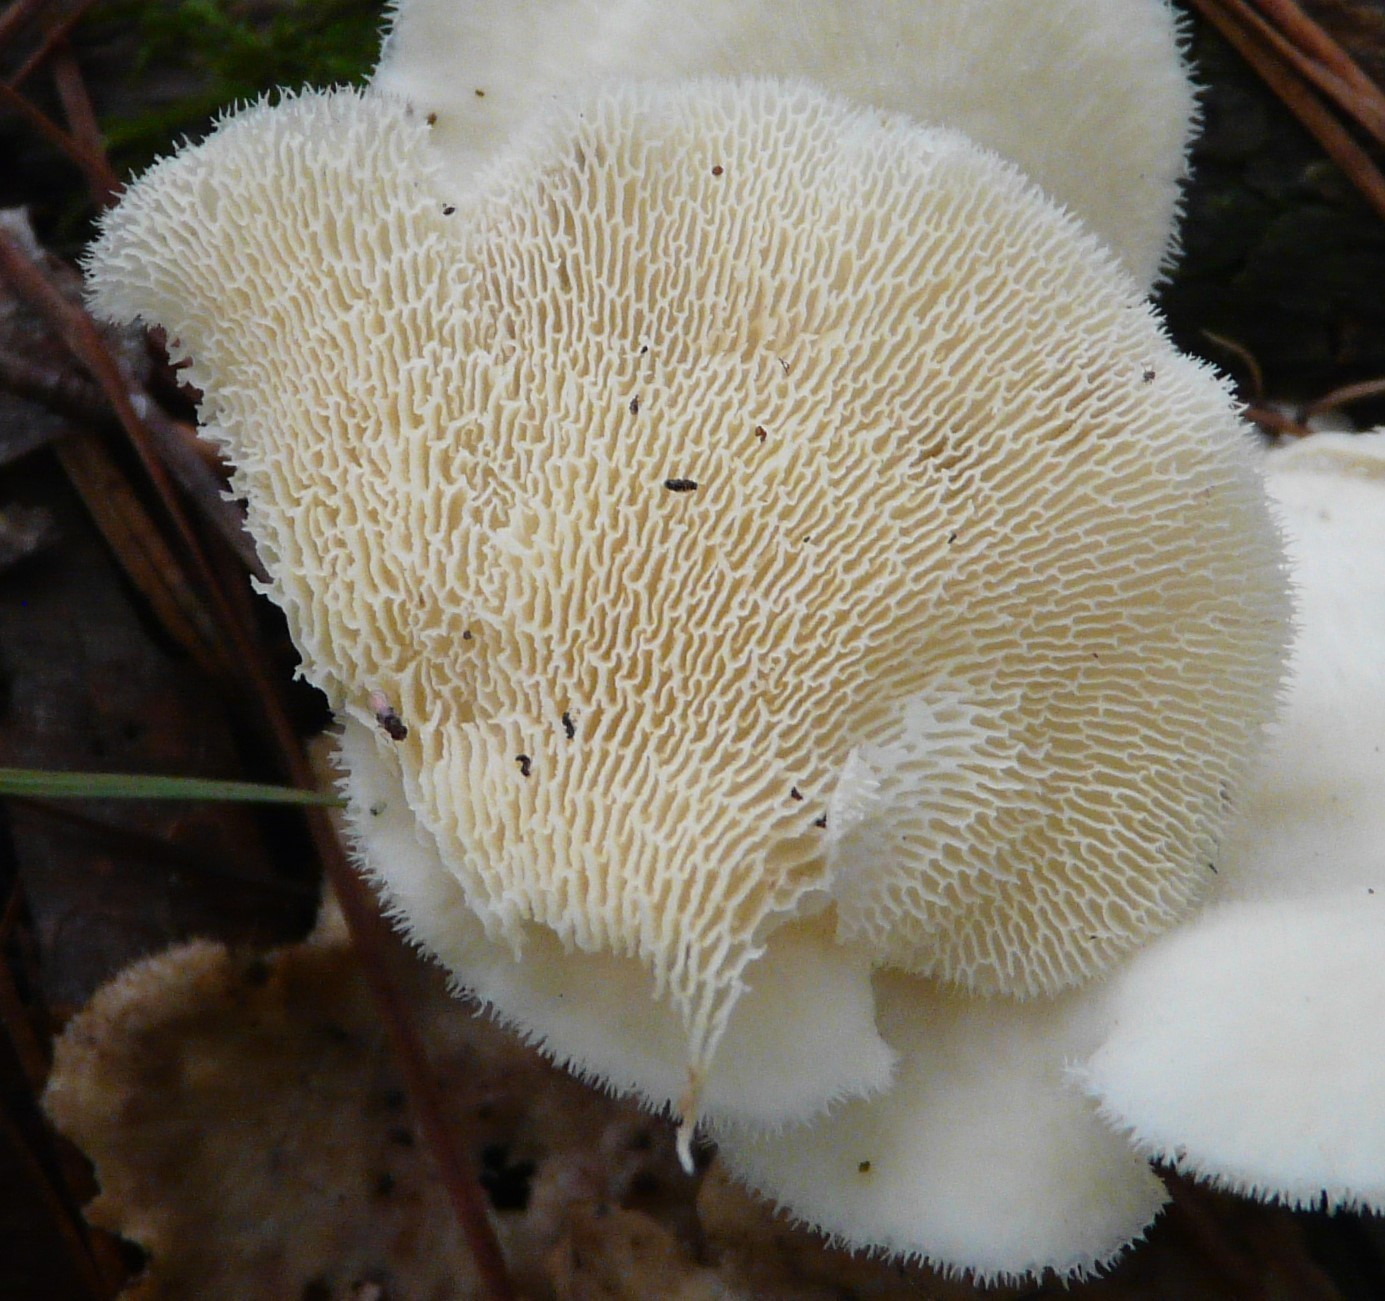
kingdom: Fungi
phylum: Basidiomycota
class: Agaricomycetes
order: Polyporales
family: Polyporaceae
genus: Favolus
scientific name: Favolus tenuiculus
